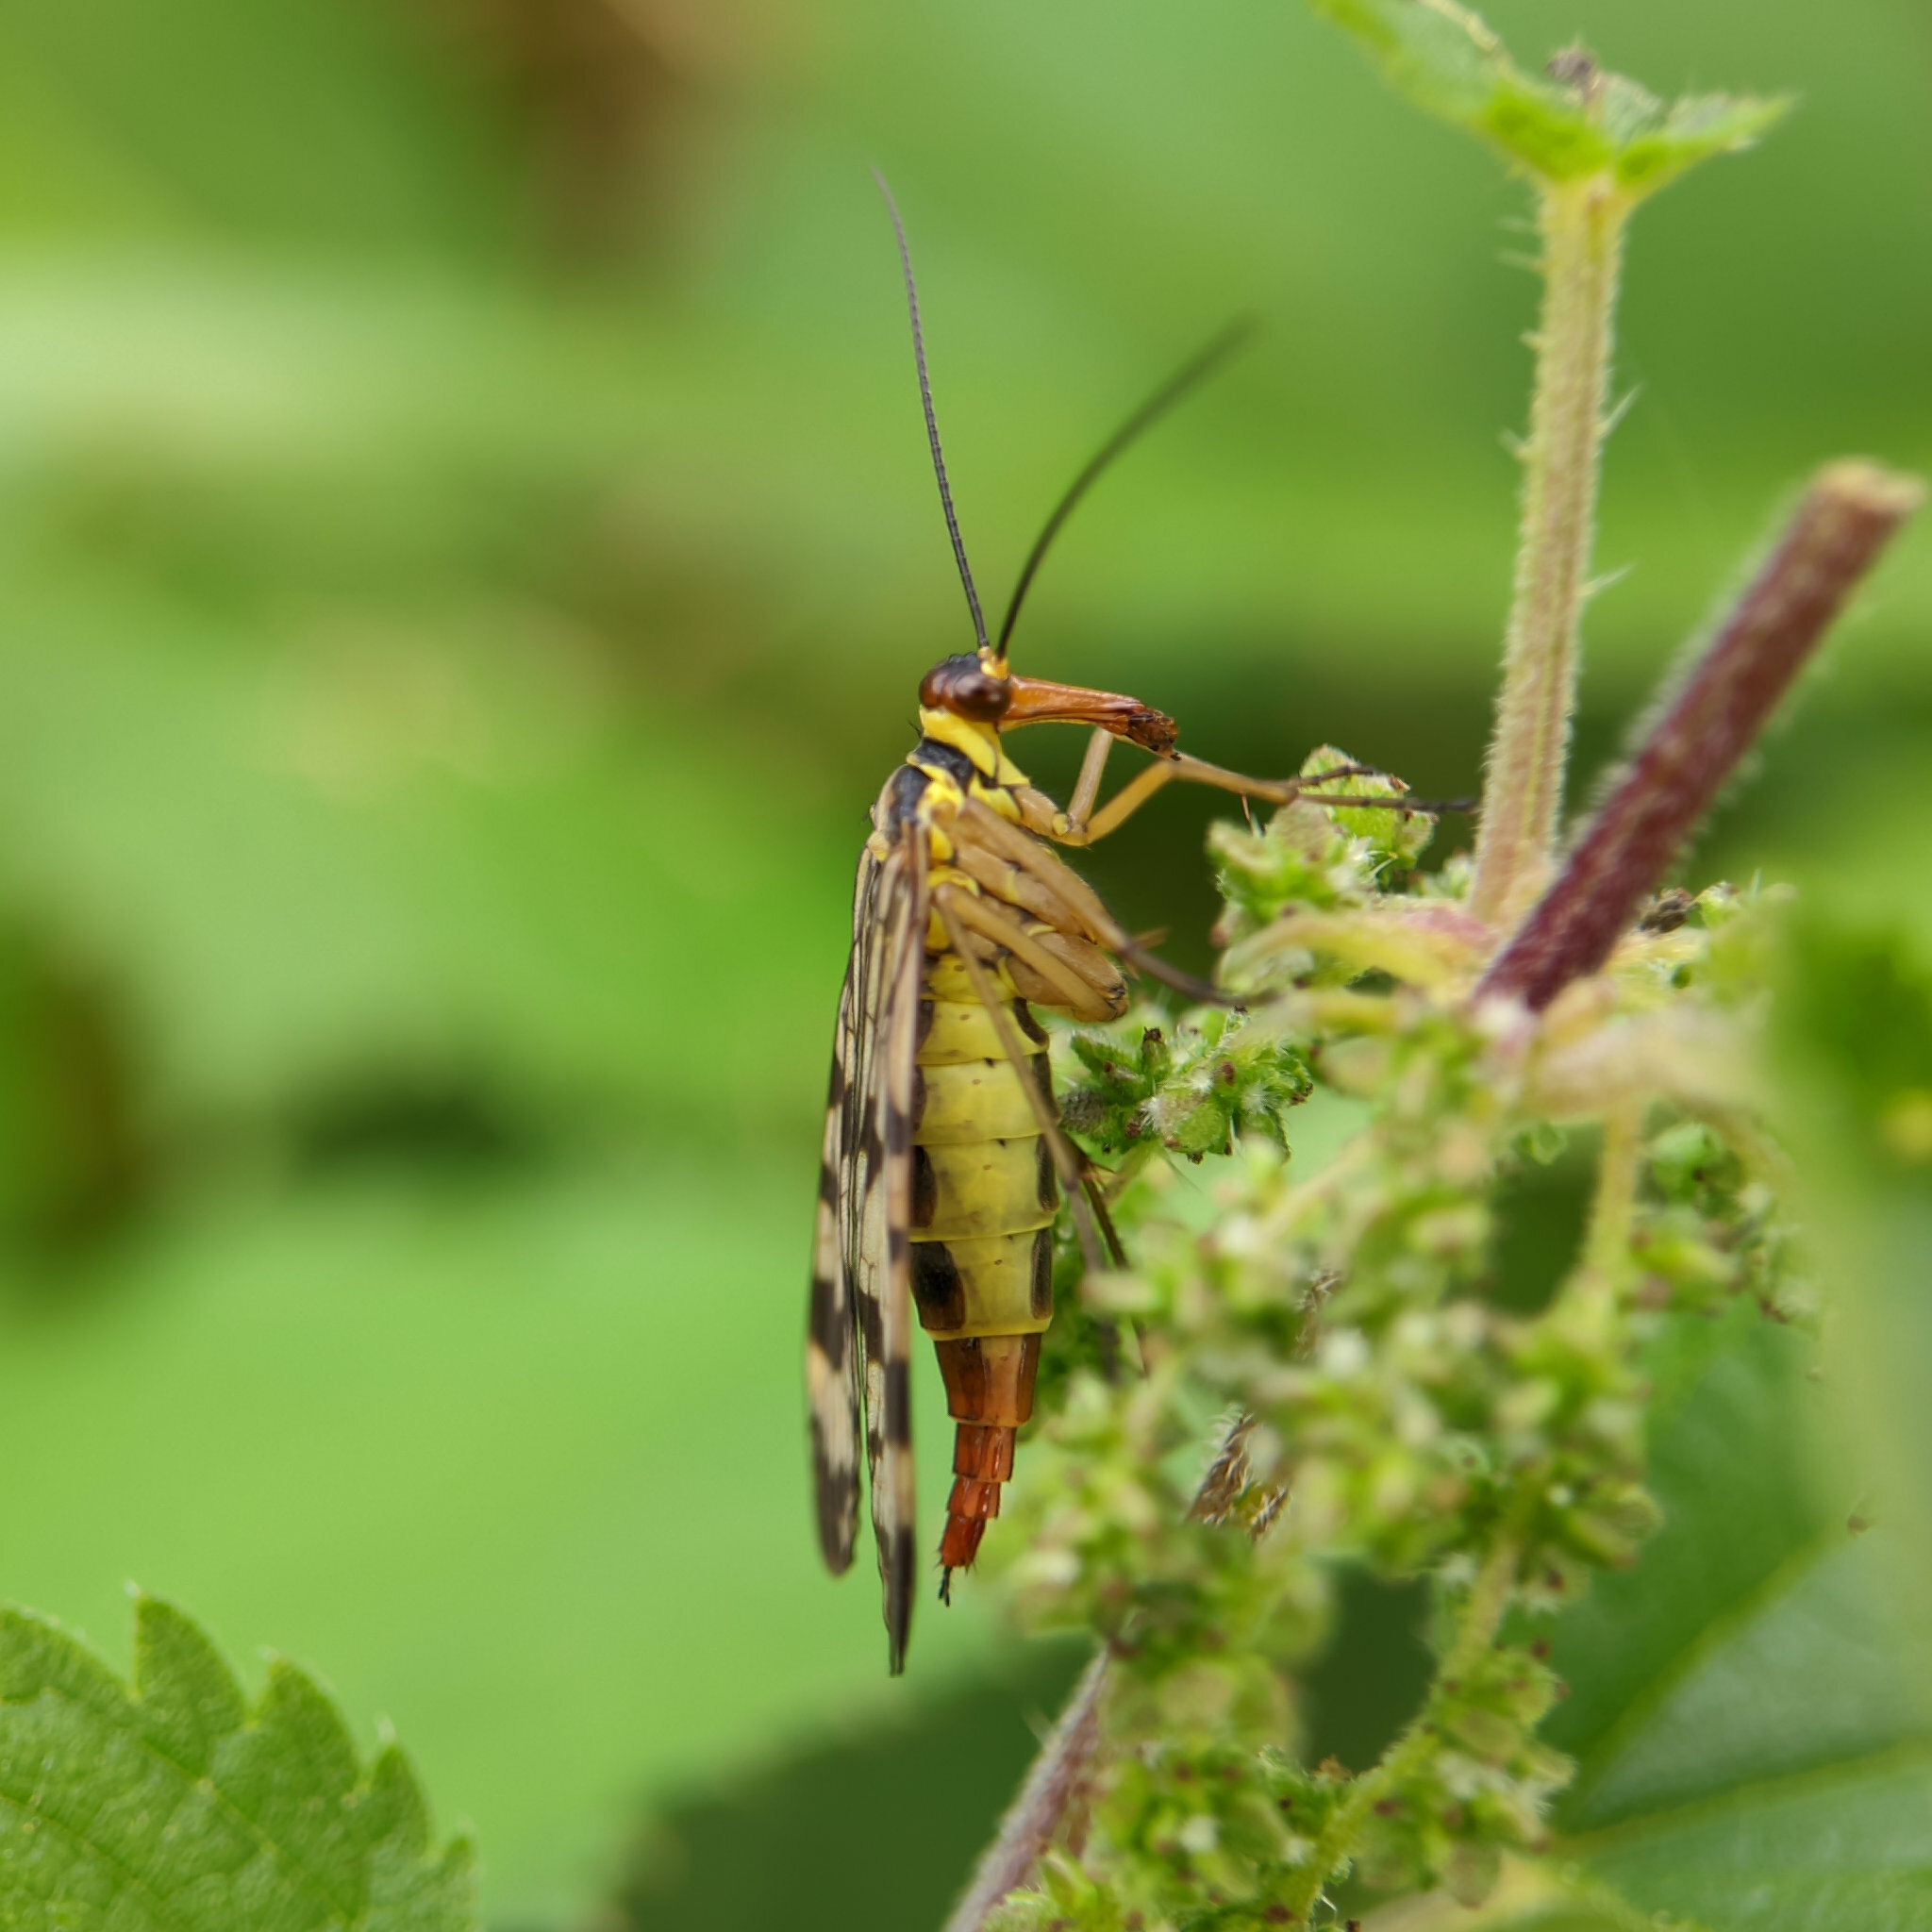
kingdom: Animalia
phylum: Arthropoda
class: Insecta
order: Mecoptera
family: Panorpidae
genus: Panorpa
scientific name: Panorpa communis
